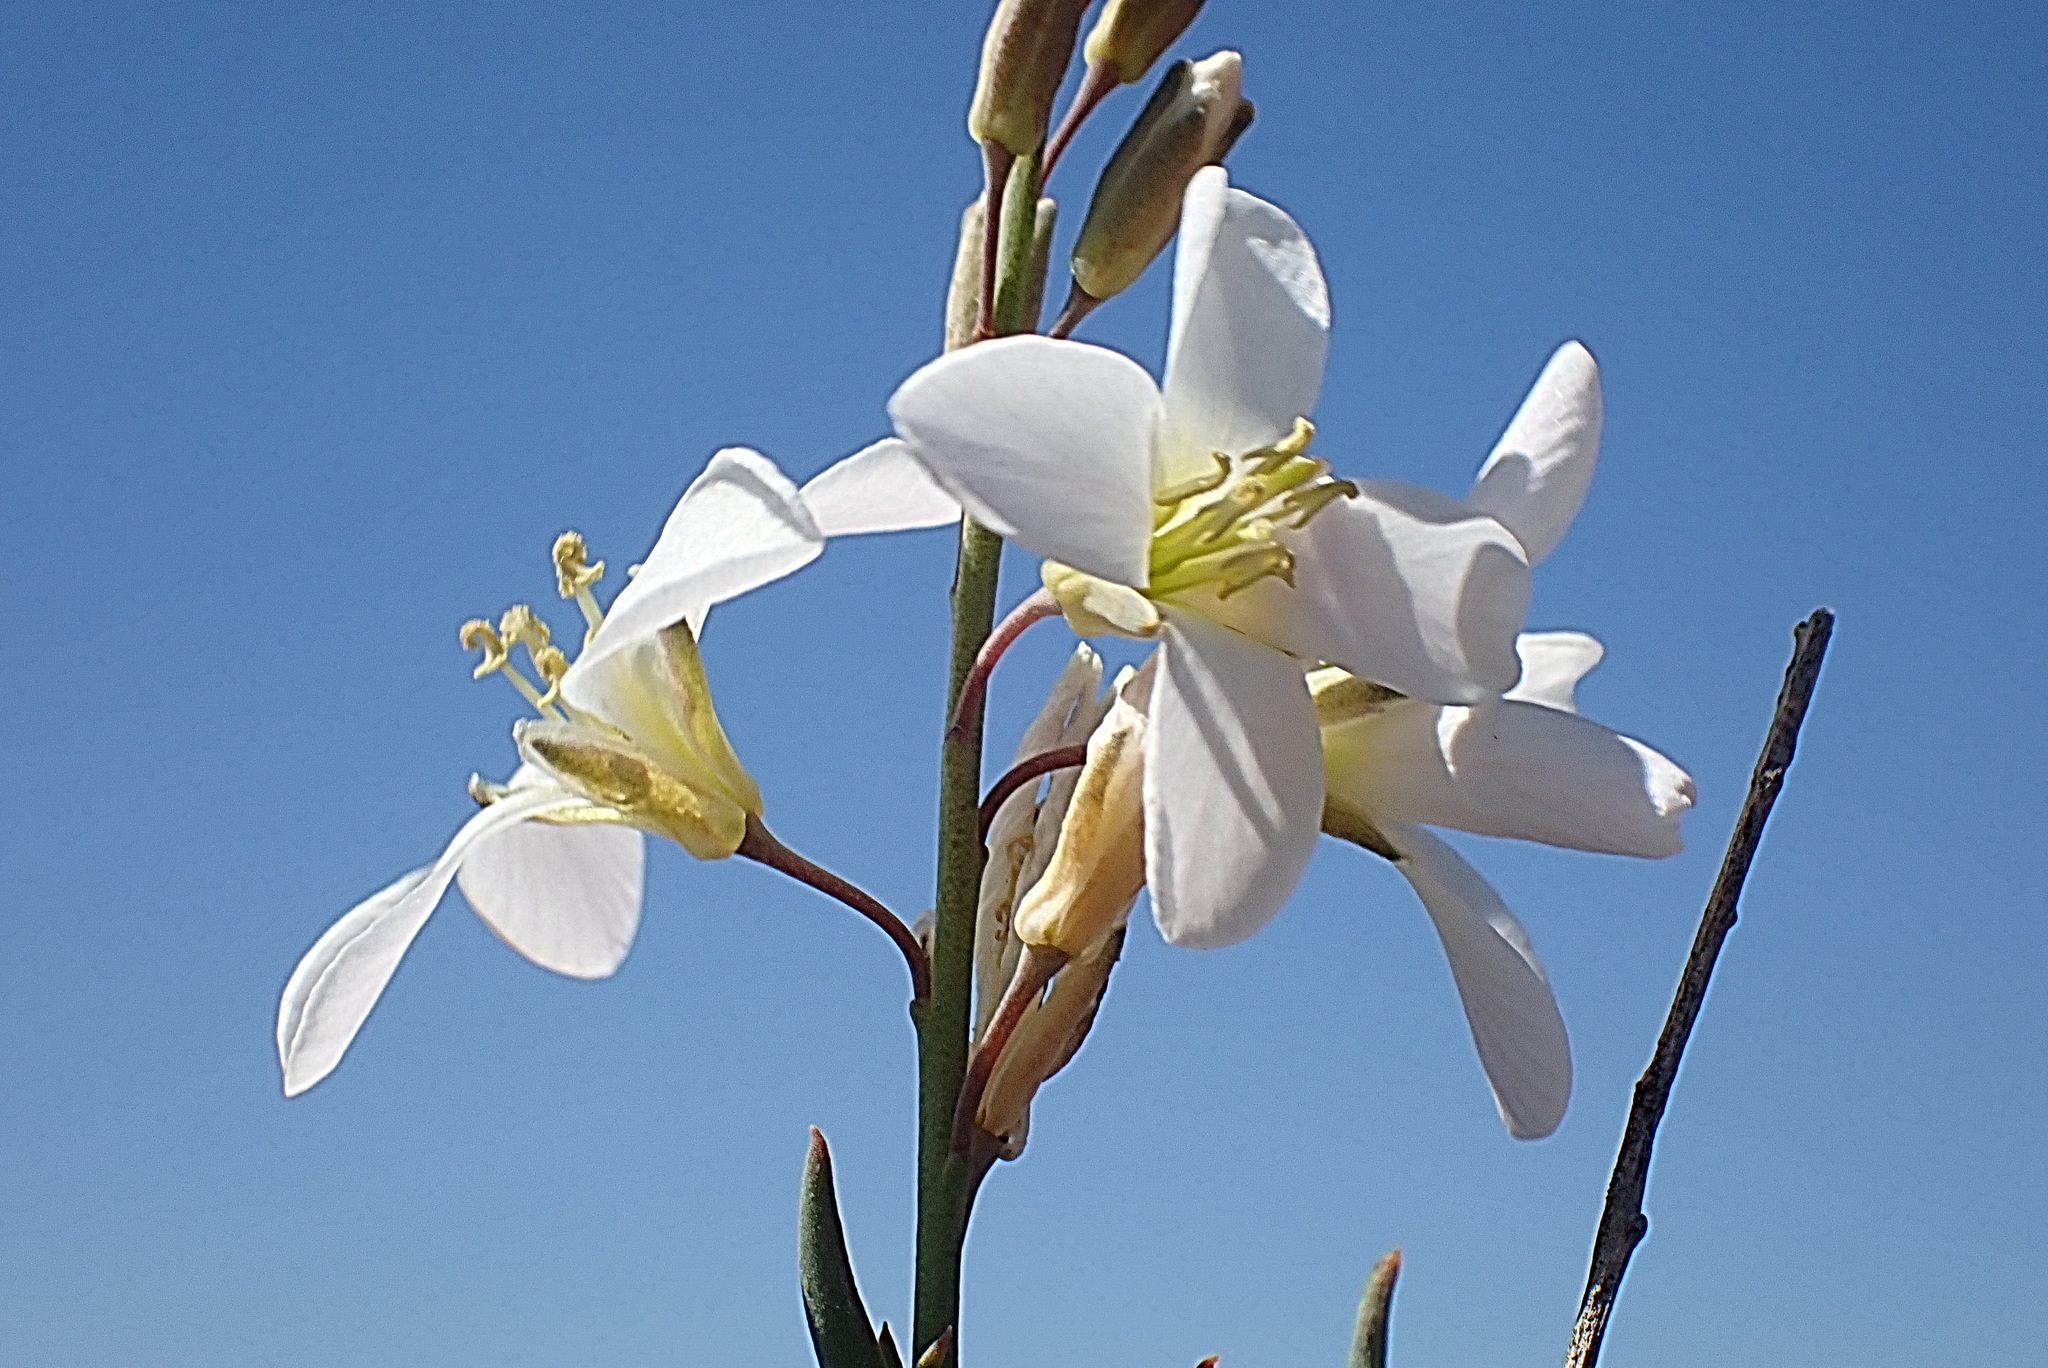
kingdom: Plantae
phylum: Tracheophyta
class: Magnoliopsida
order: Brassicales
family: Brassicaceae
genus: Heliophila
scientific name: Heliophila glauca
